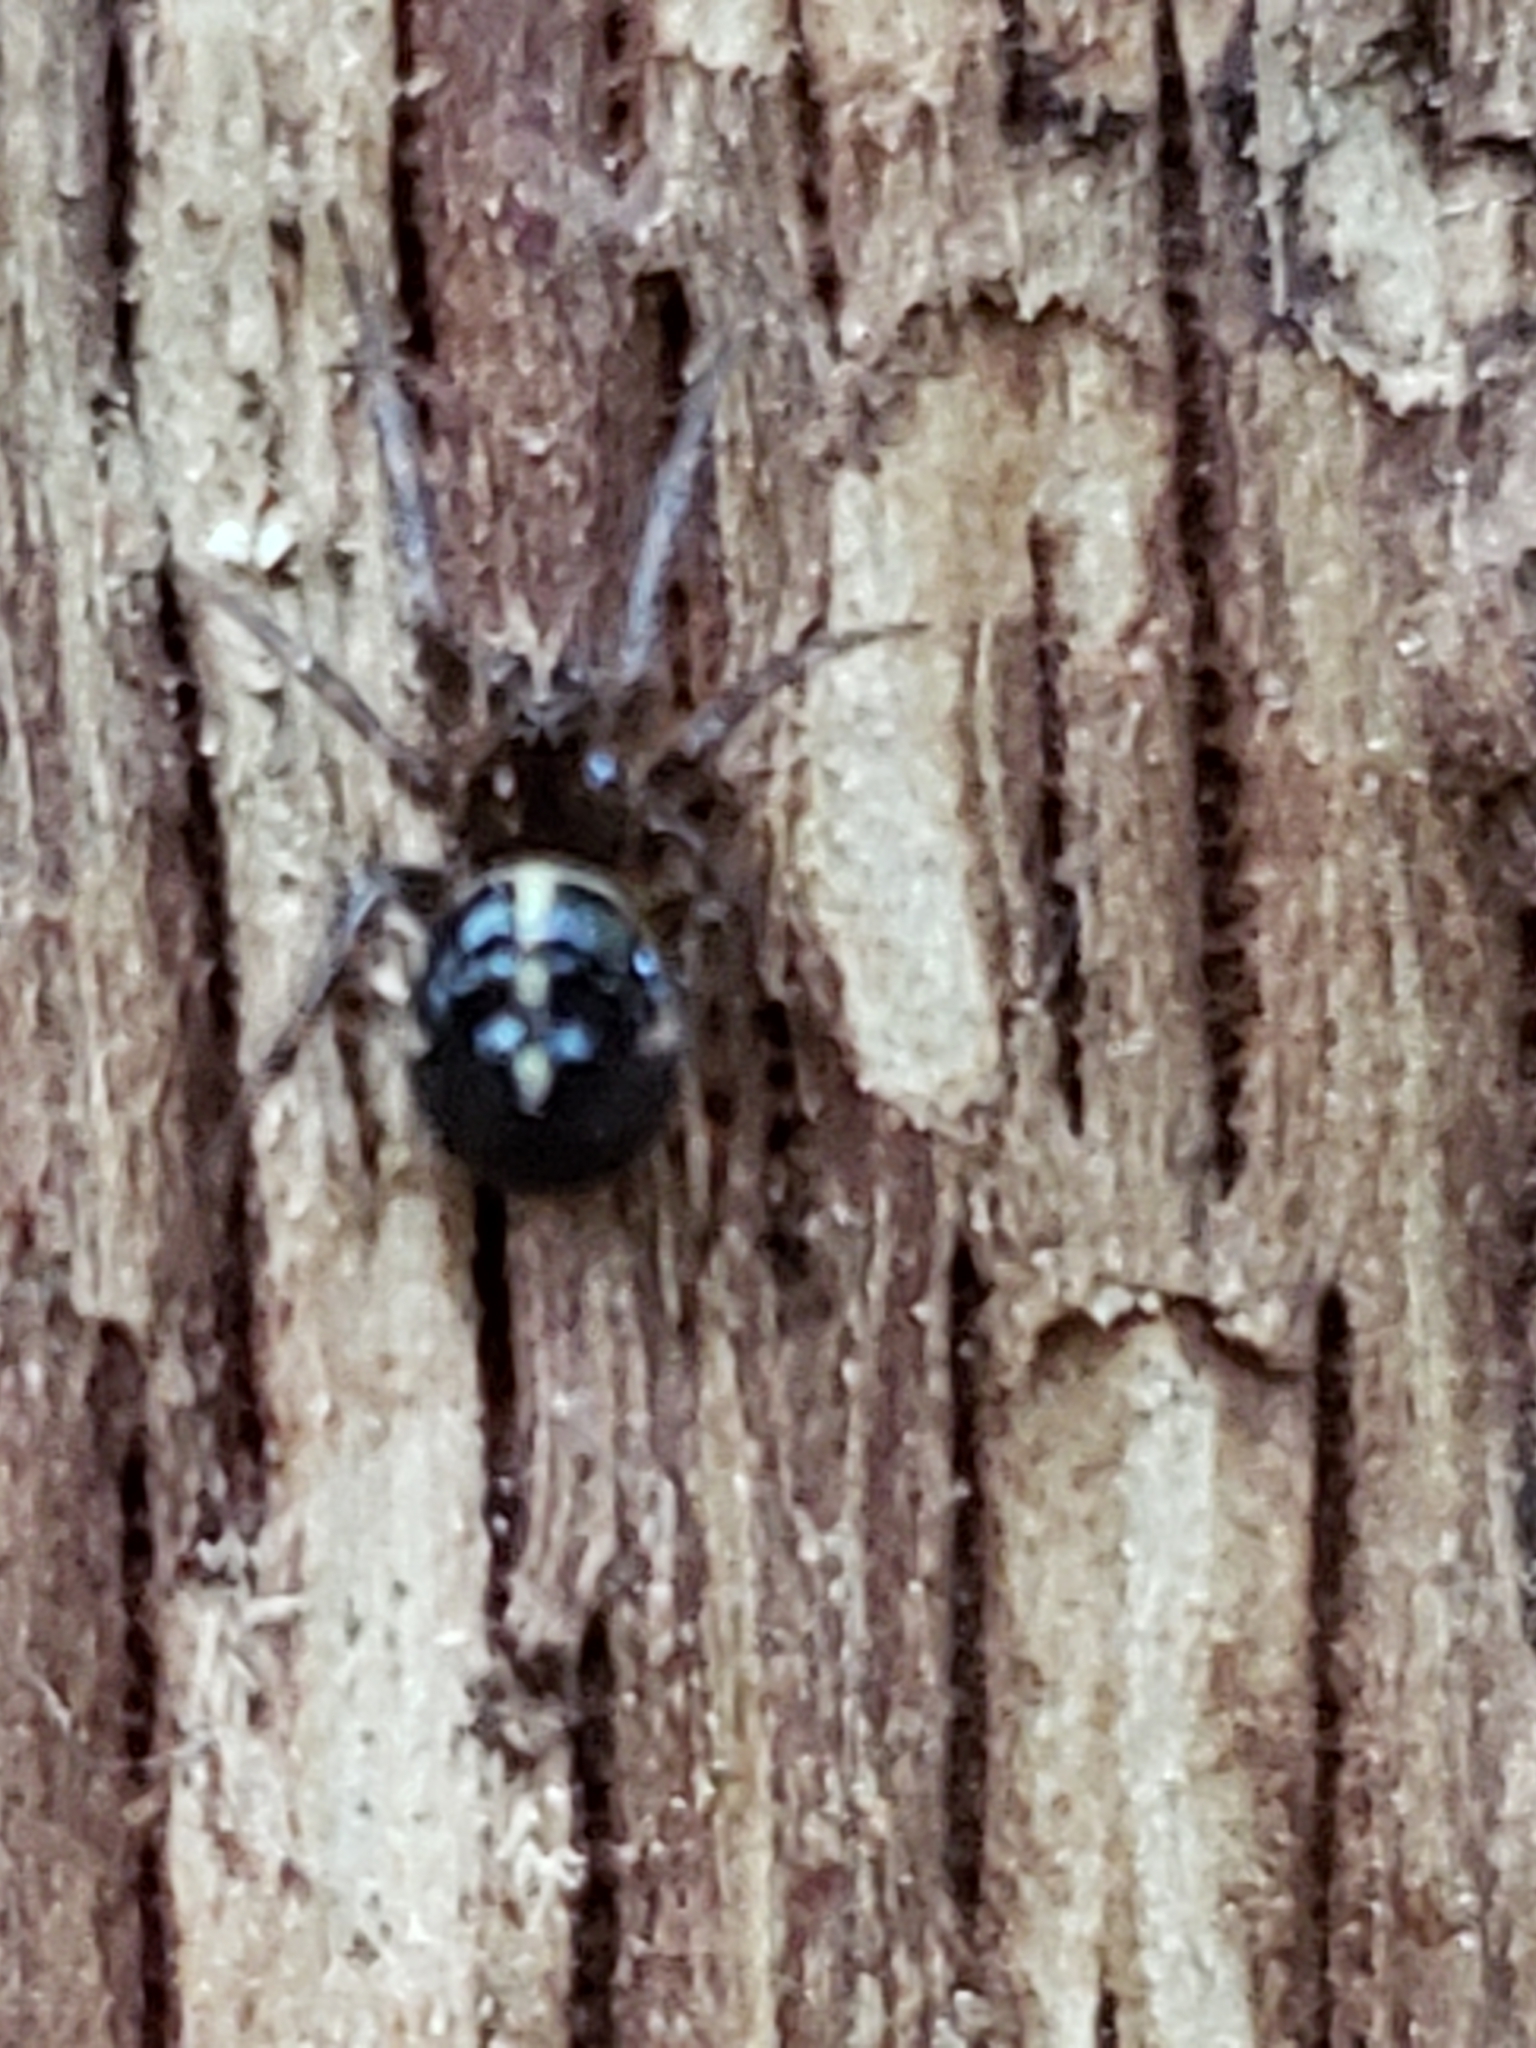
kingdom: Animalia
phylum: Arthropoda
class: Arachnida
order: Araneae
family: Theridiidae
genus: Steatoda
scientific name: Steatoda borealis
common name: Boreal combfoot
